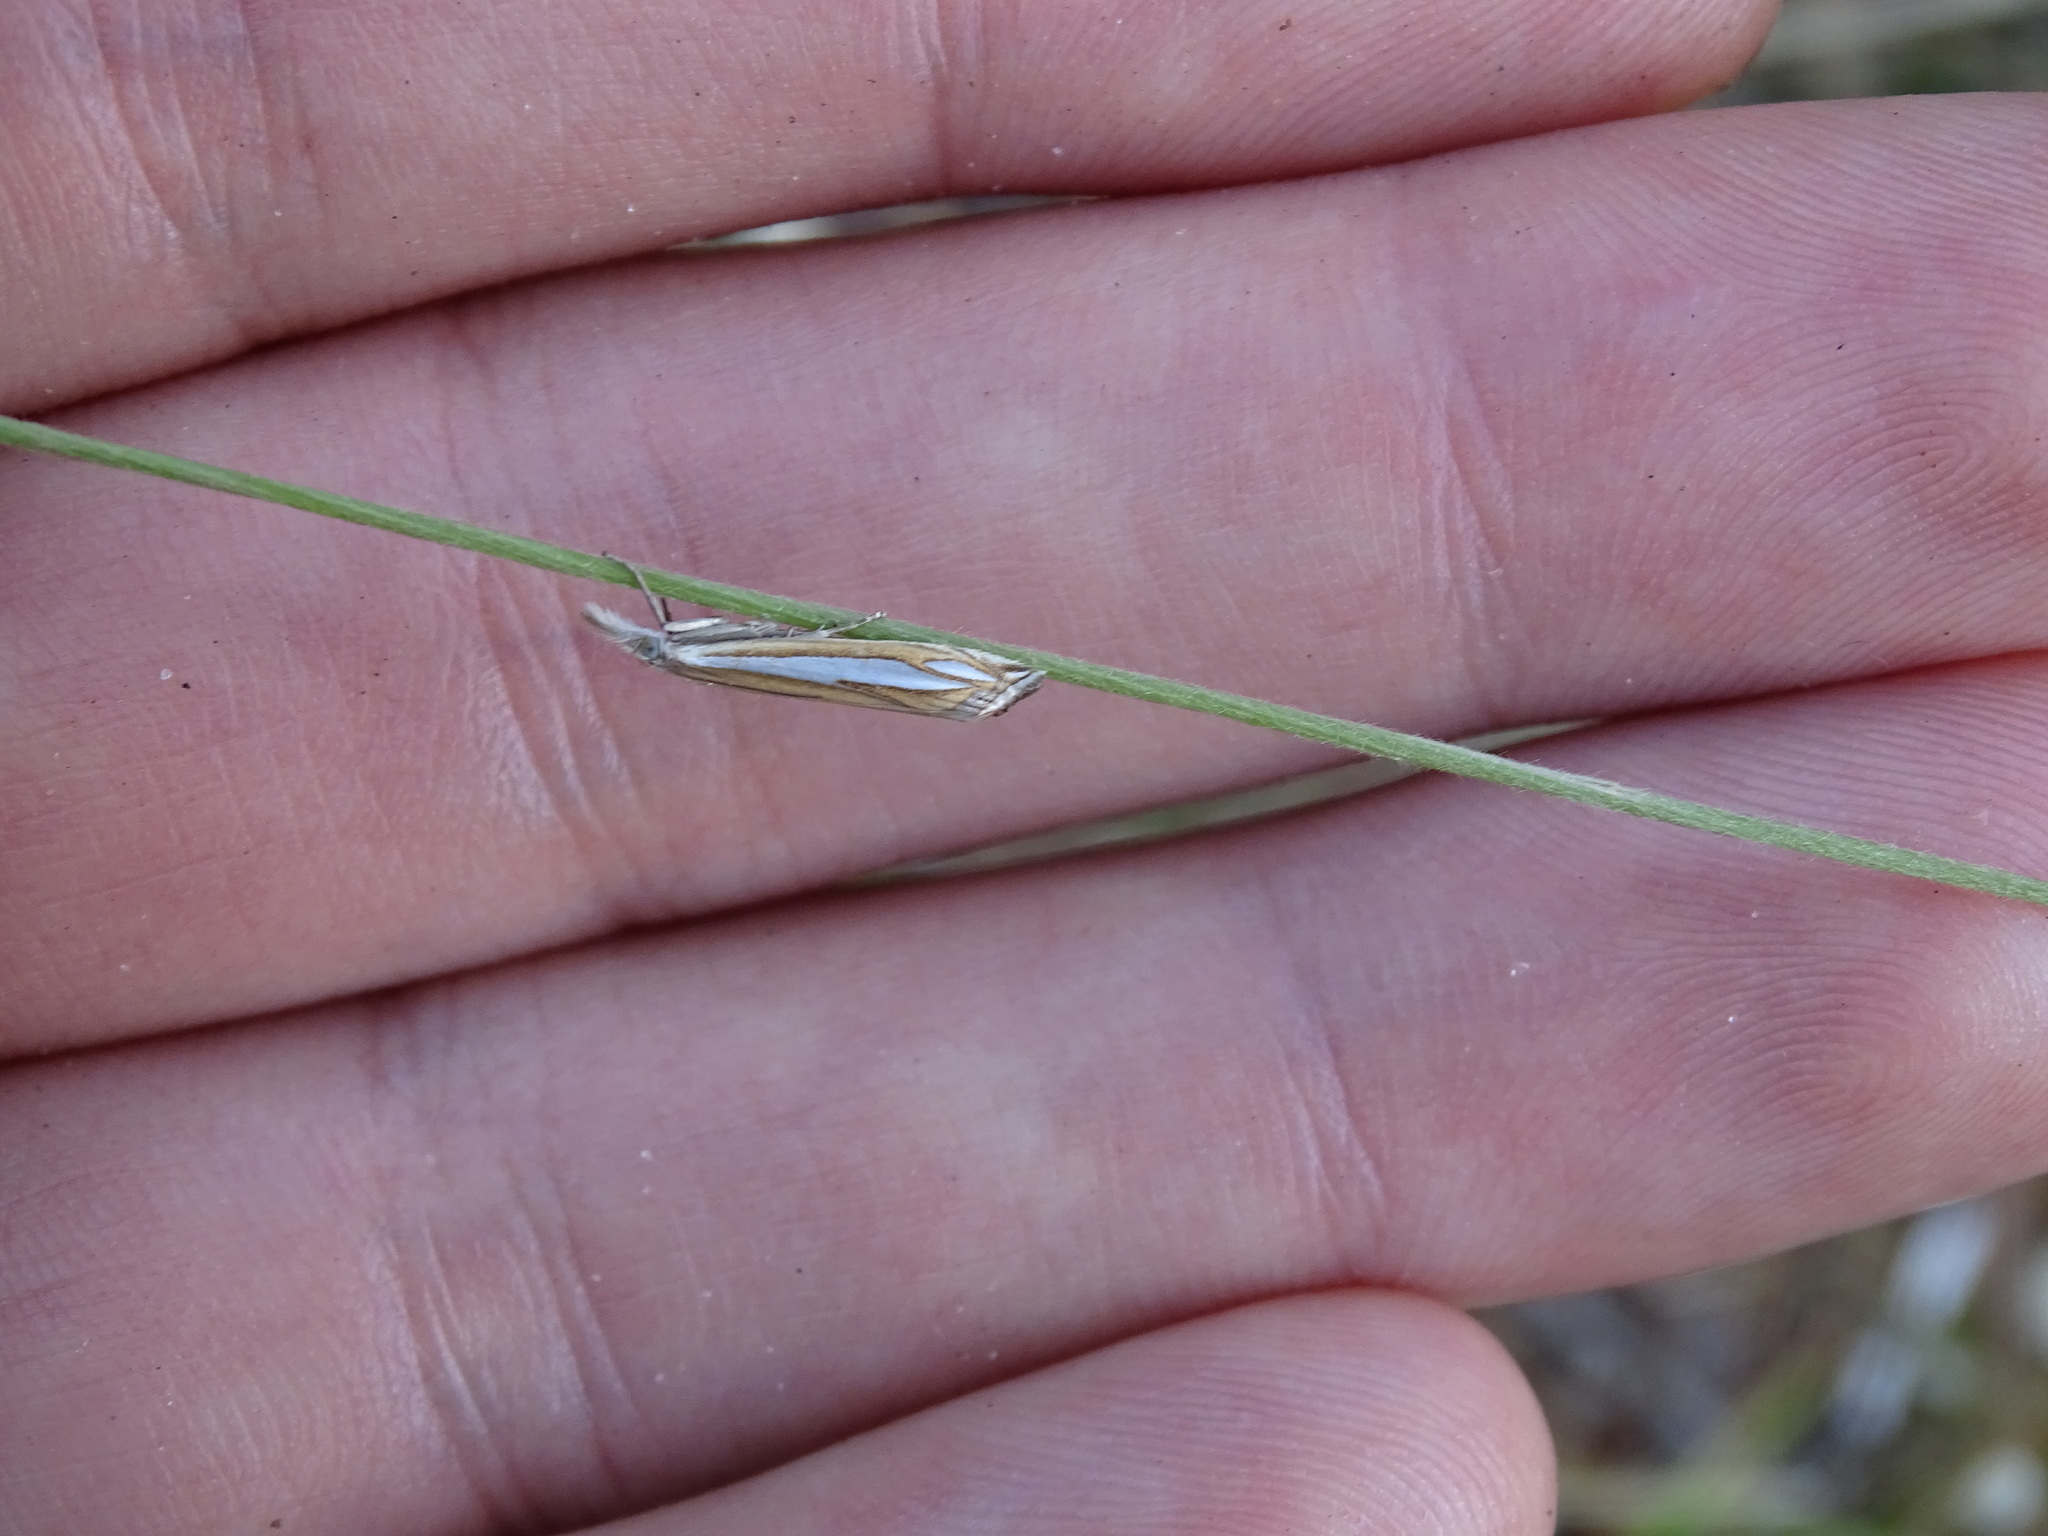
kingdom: Animalia
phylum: Arthropoda
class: Insecta
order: Lepidoptera
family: Crambidae
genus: Crambus
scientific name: Crambus satrapellus
